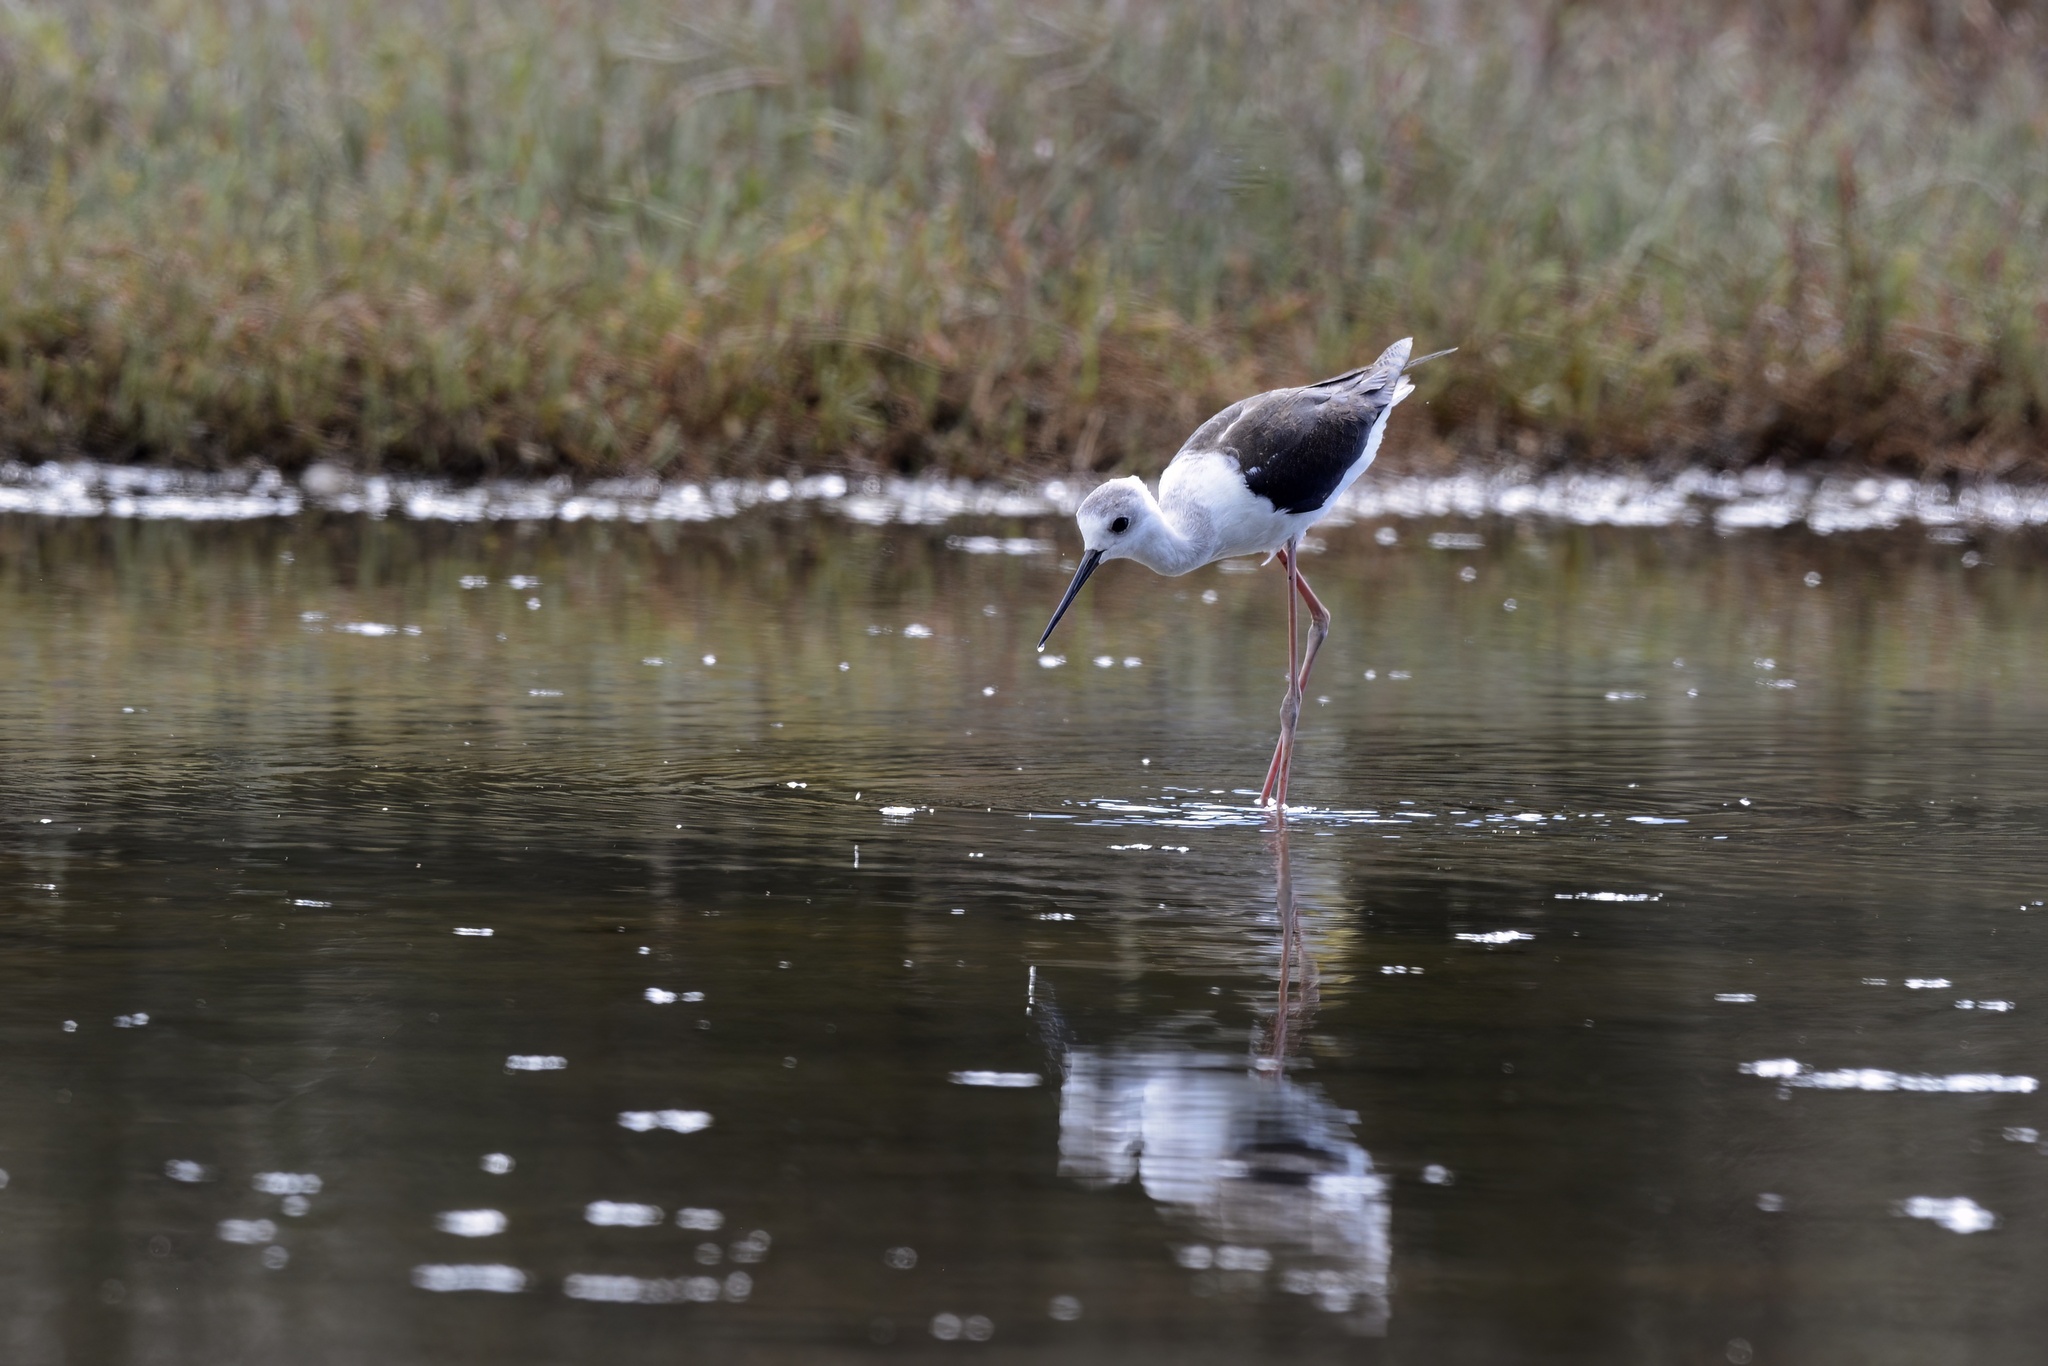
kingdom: Animalia
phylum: Chordata
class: Aves
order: Charadriiformes
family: Recurvirostridae
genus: Himantopus
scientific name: Himantopus leucocephalus
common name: White-headed stilt
